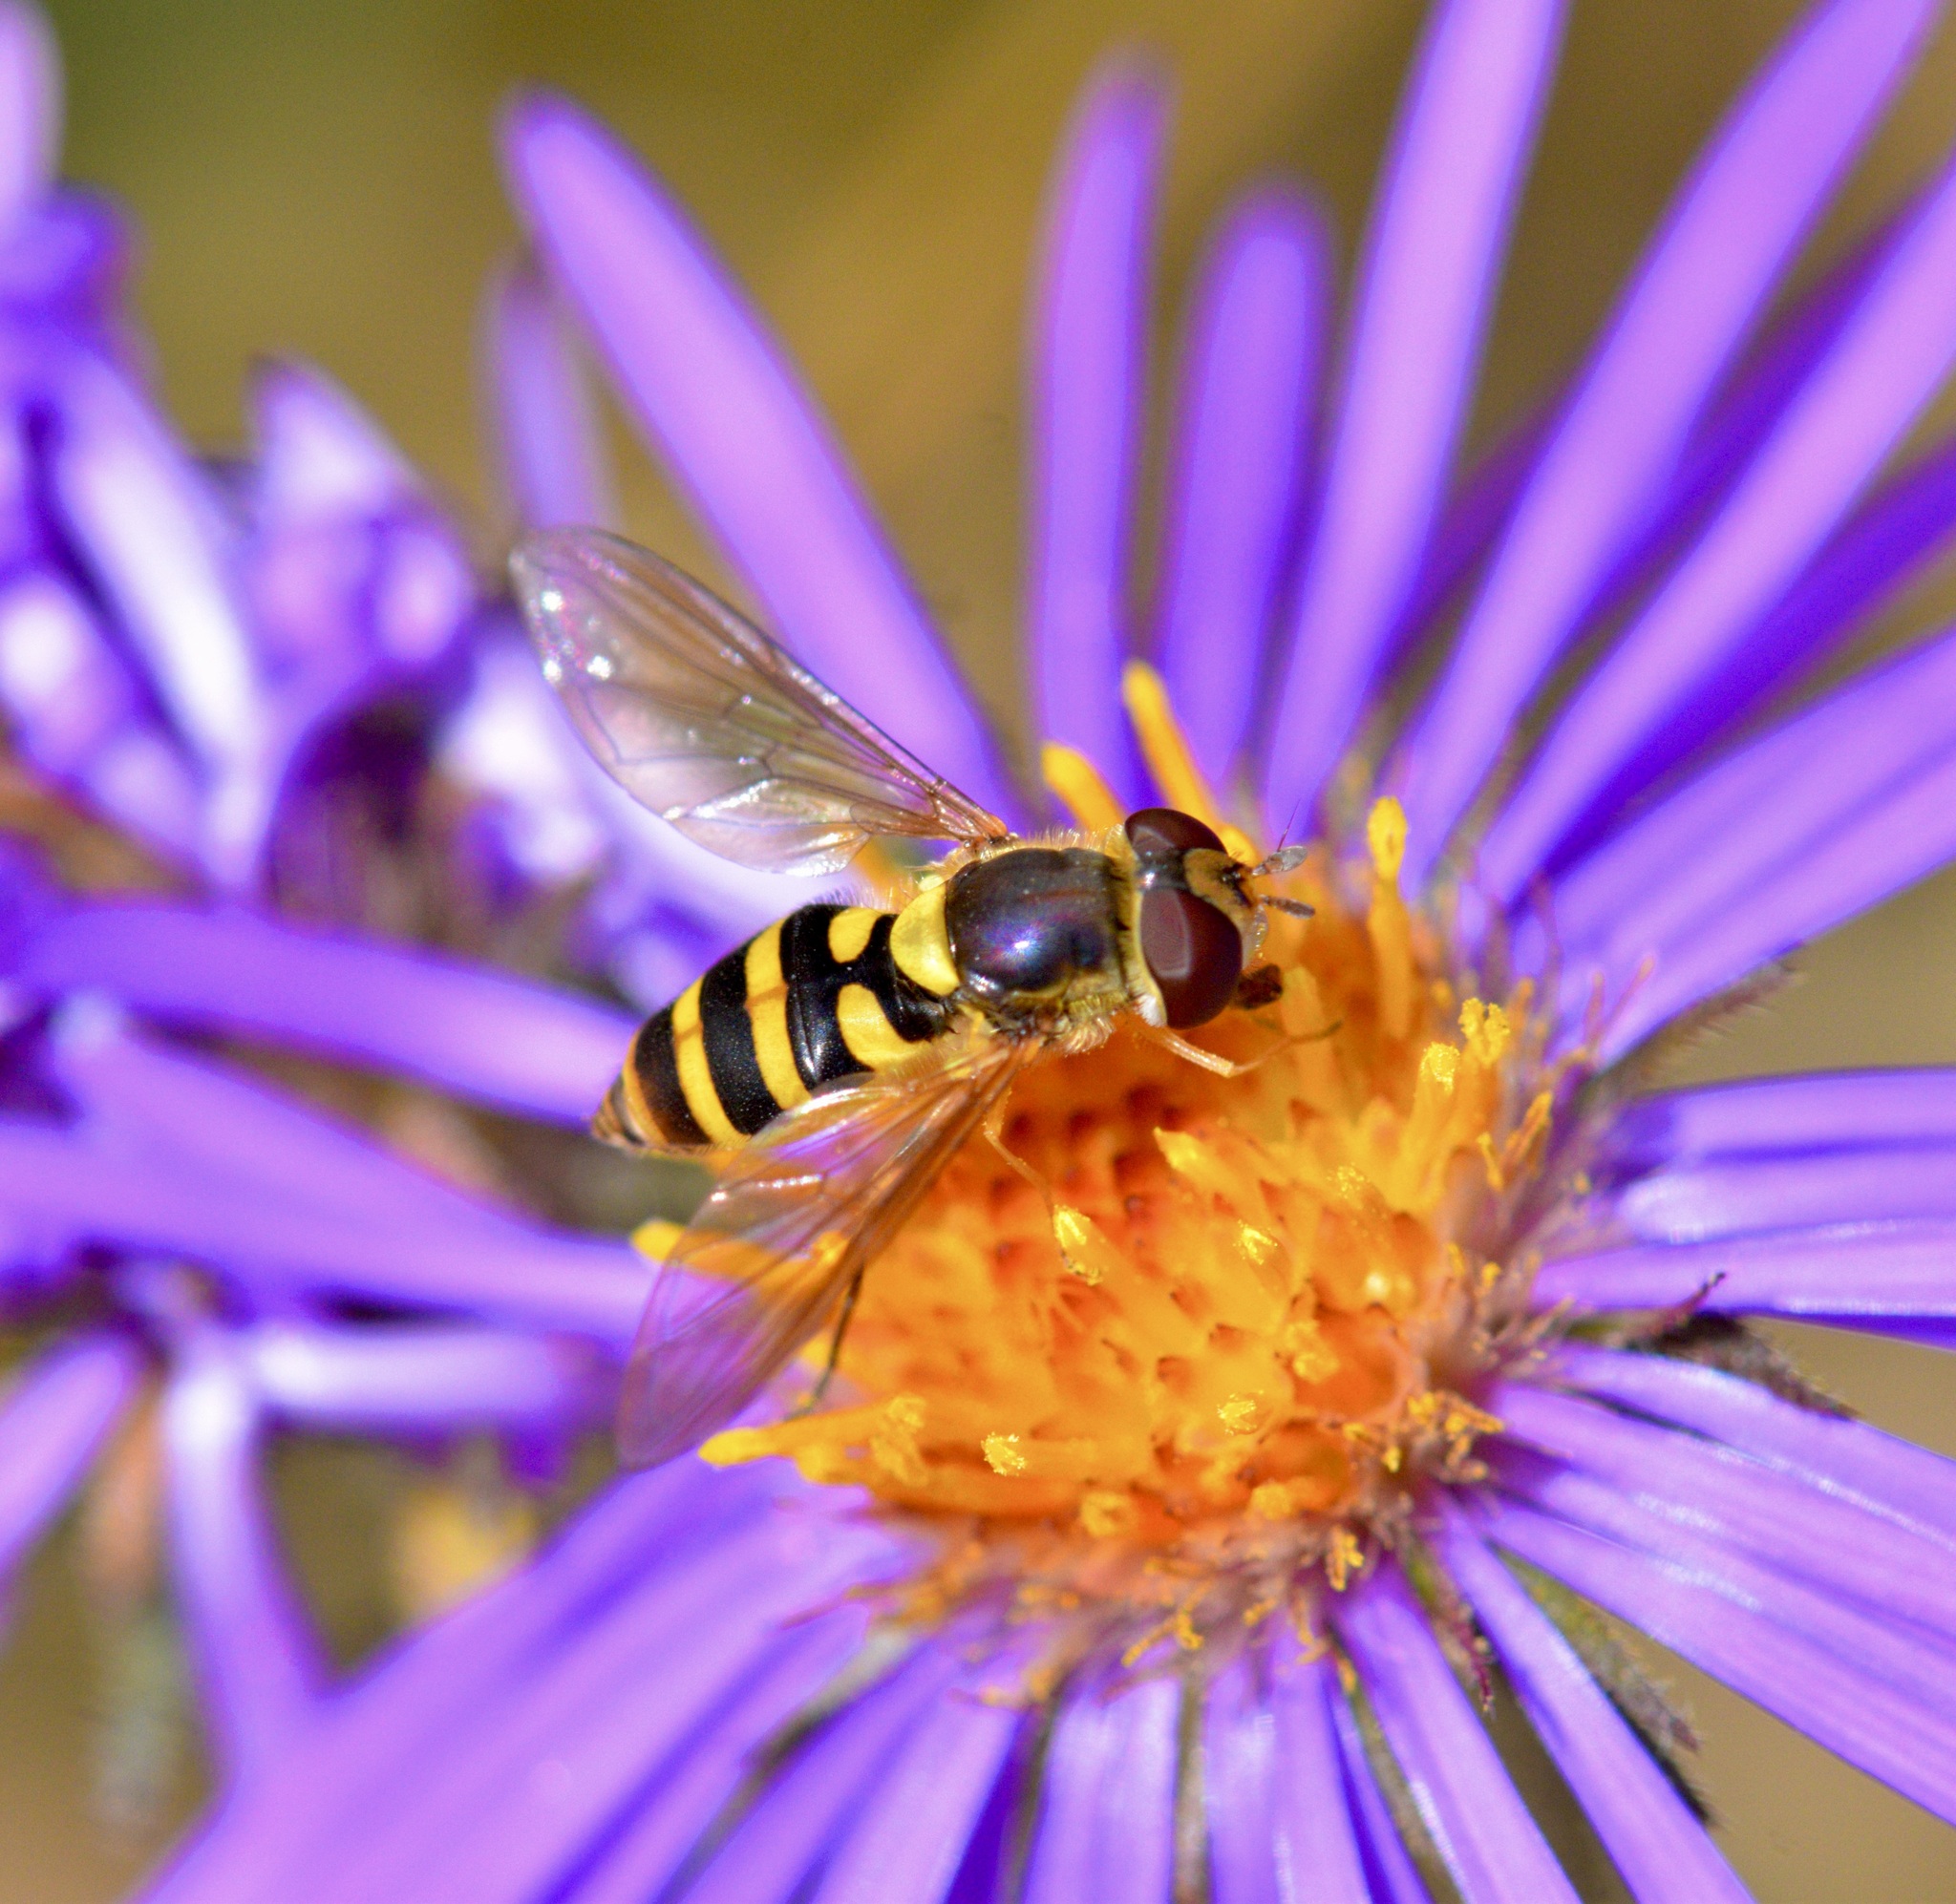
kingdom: Animalia
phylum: Arthropoda
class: Insecta
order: Diptera
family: Syrphidae
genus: Syrphus
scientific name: Syrphus rectus
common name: Yellow-legged flower fly
